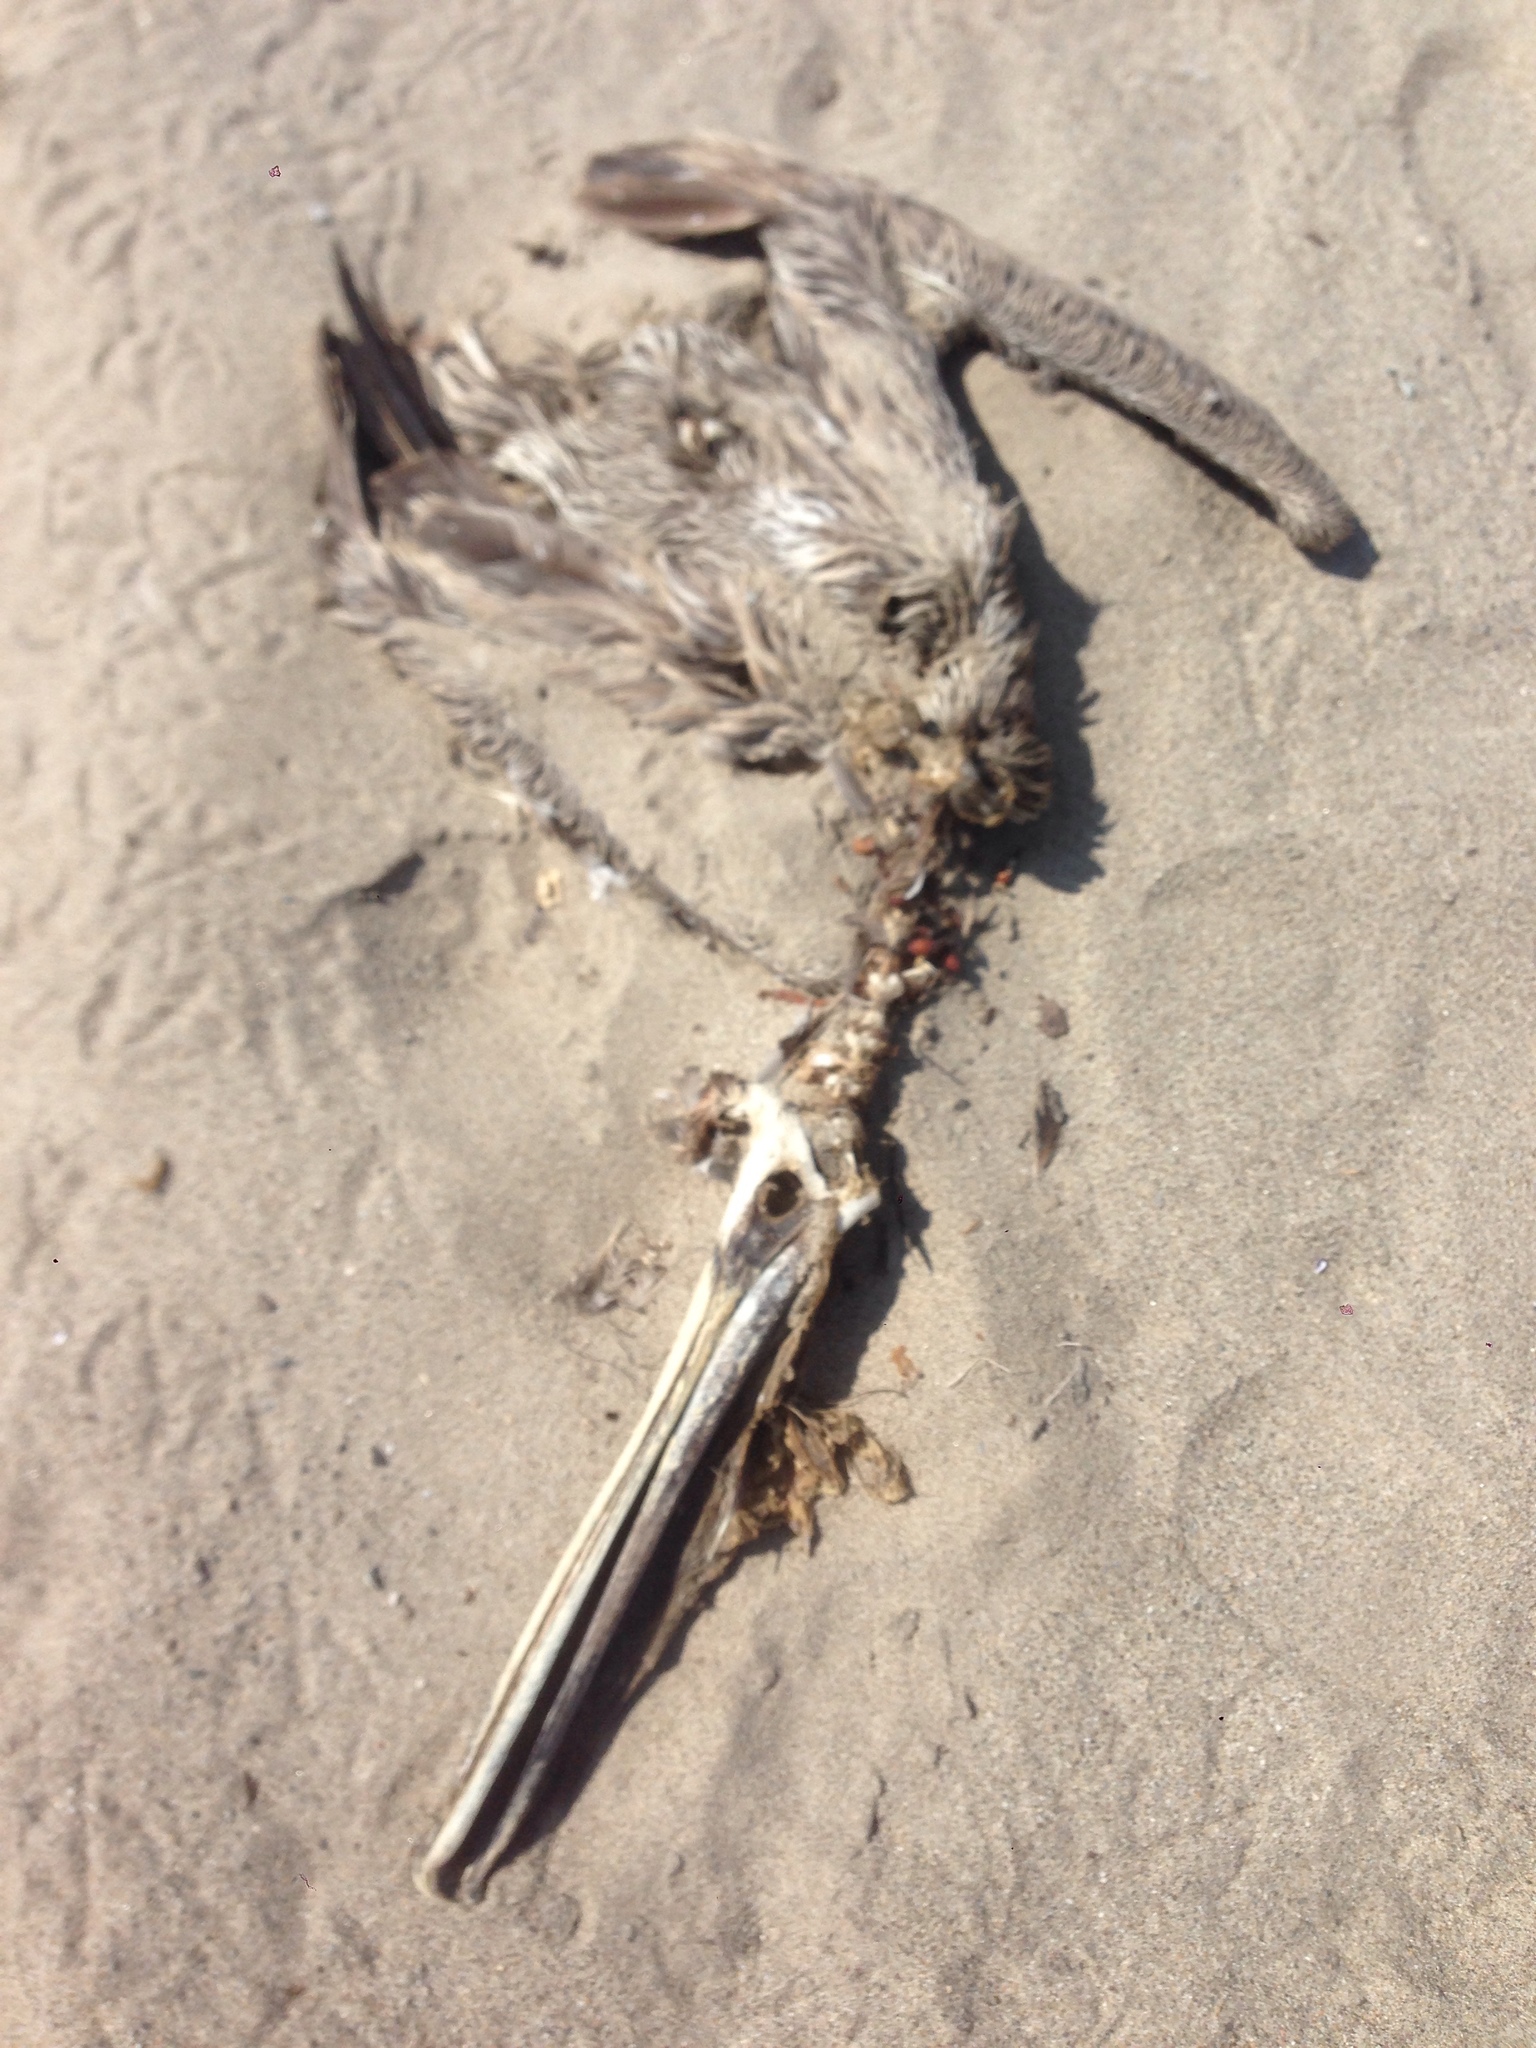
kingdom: Animalia
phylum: Chordata
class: Aves
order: Pelecaniformes
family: Pelecanidae
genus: Pelecanus
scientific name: Pelecanus occidentalis
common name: Brown pelican
